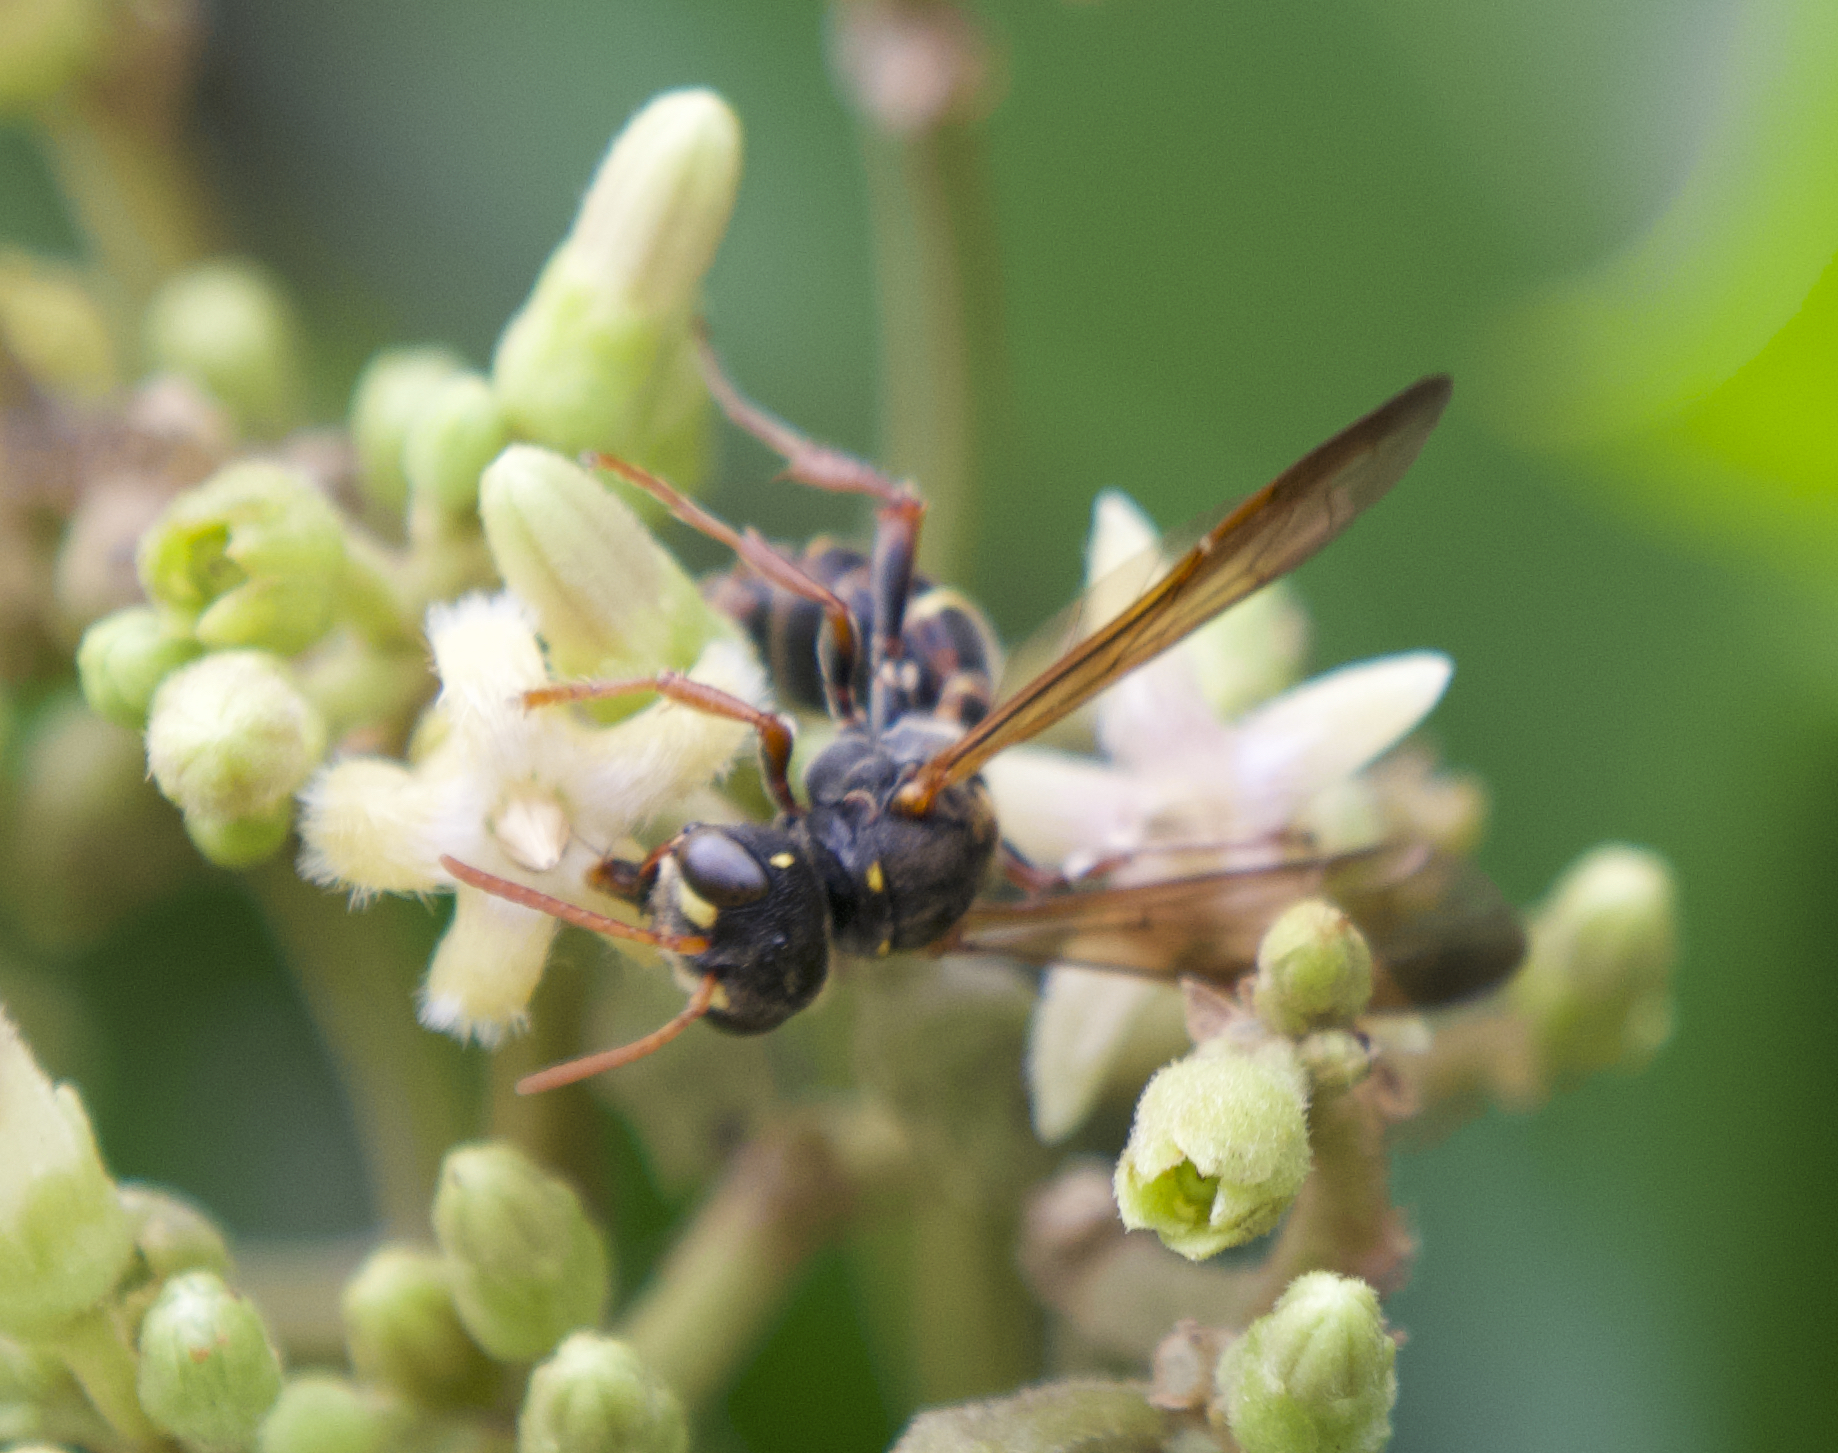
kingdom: Animalia
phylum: Arthropoda
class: Insecta
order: Hymenoptera
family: Crabronidae
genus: Cerceris
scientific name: Cerceris hackeriana
